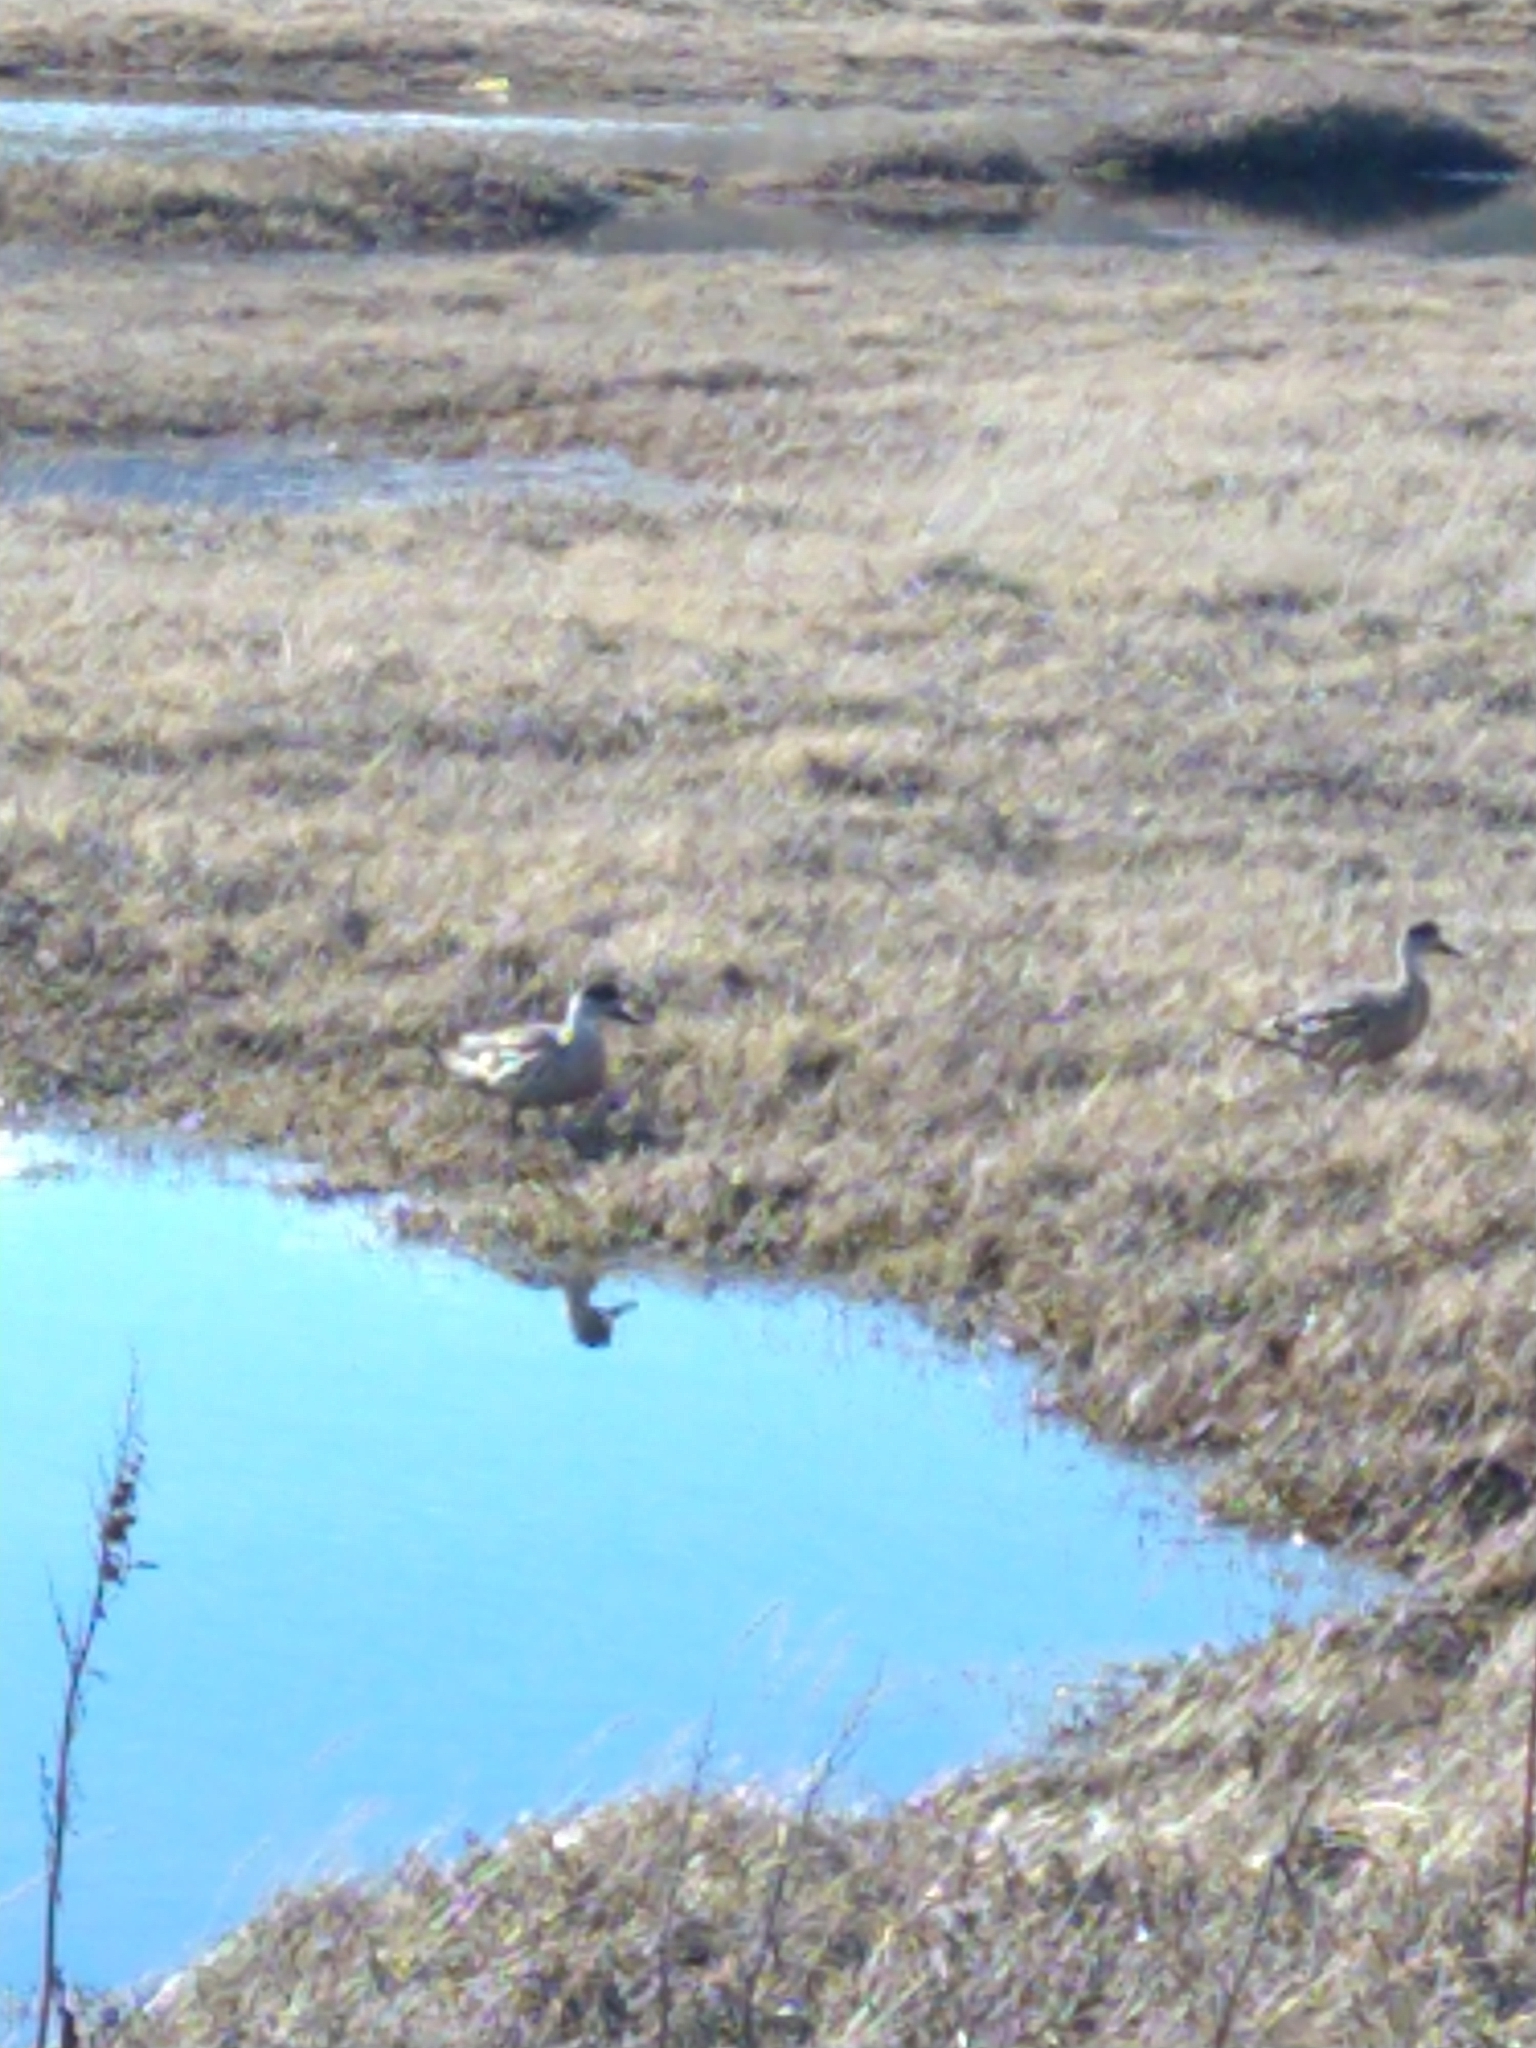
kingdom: Animalia
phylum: Chordata
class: Aves
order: Anseriformes
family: Anatidae
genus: Lophonetta
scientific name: Lophonetta specularioides
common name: Crested duck
